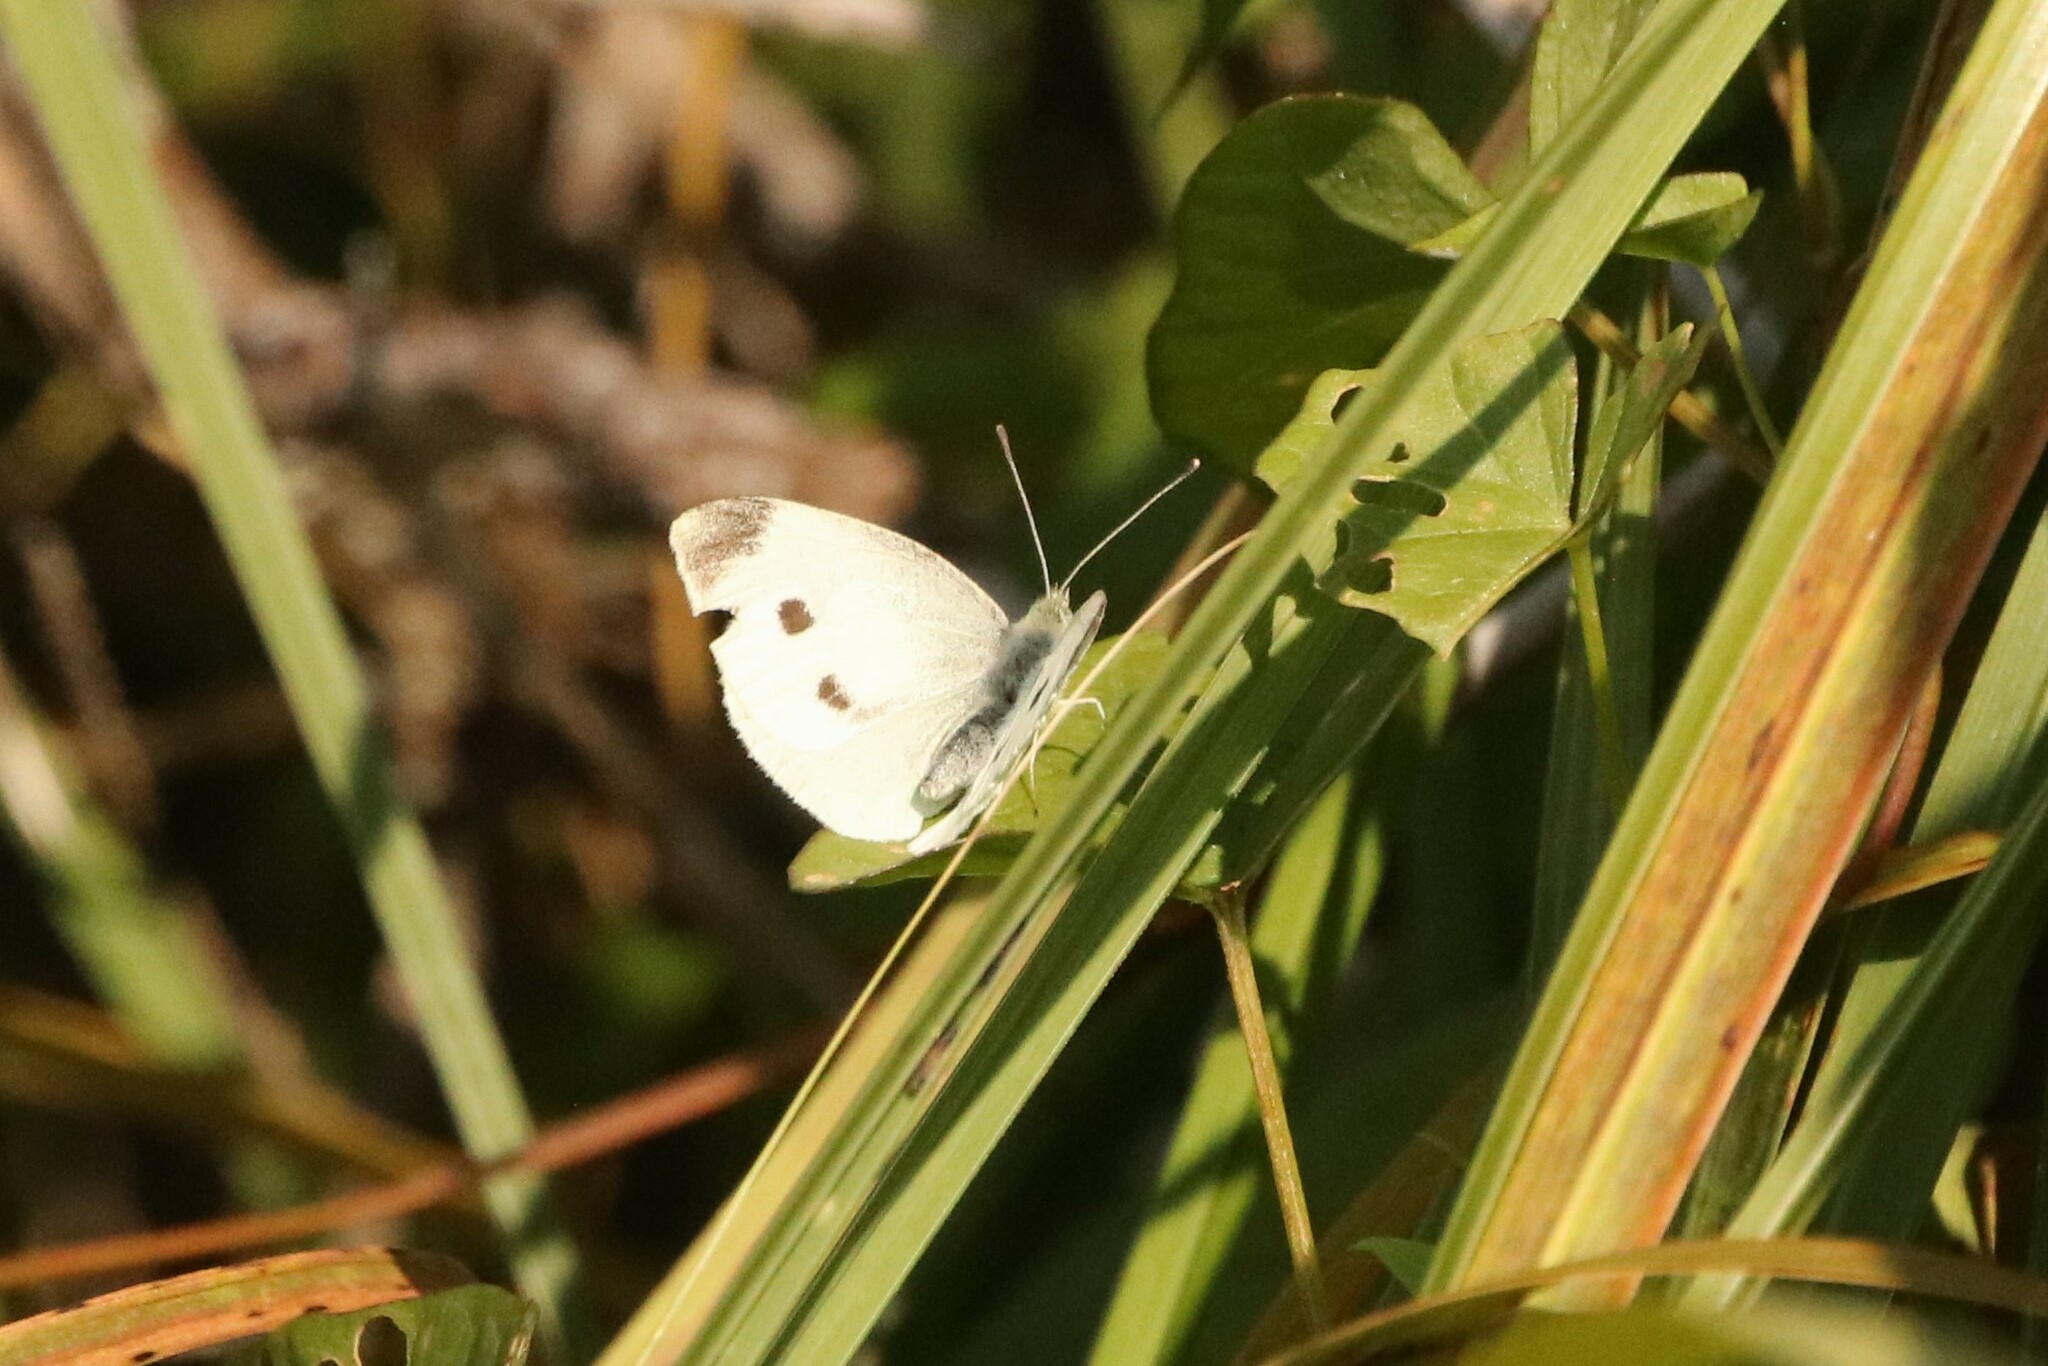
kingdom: Animalia
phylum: Arthropoda
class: Insecta
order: Lepidoptera
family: Pieridae
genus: Pieris
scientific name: Pieris rapae
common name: Small white
